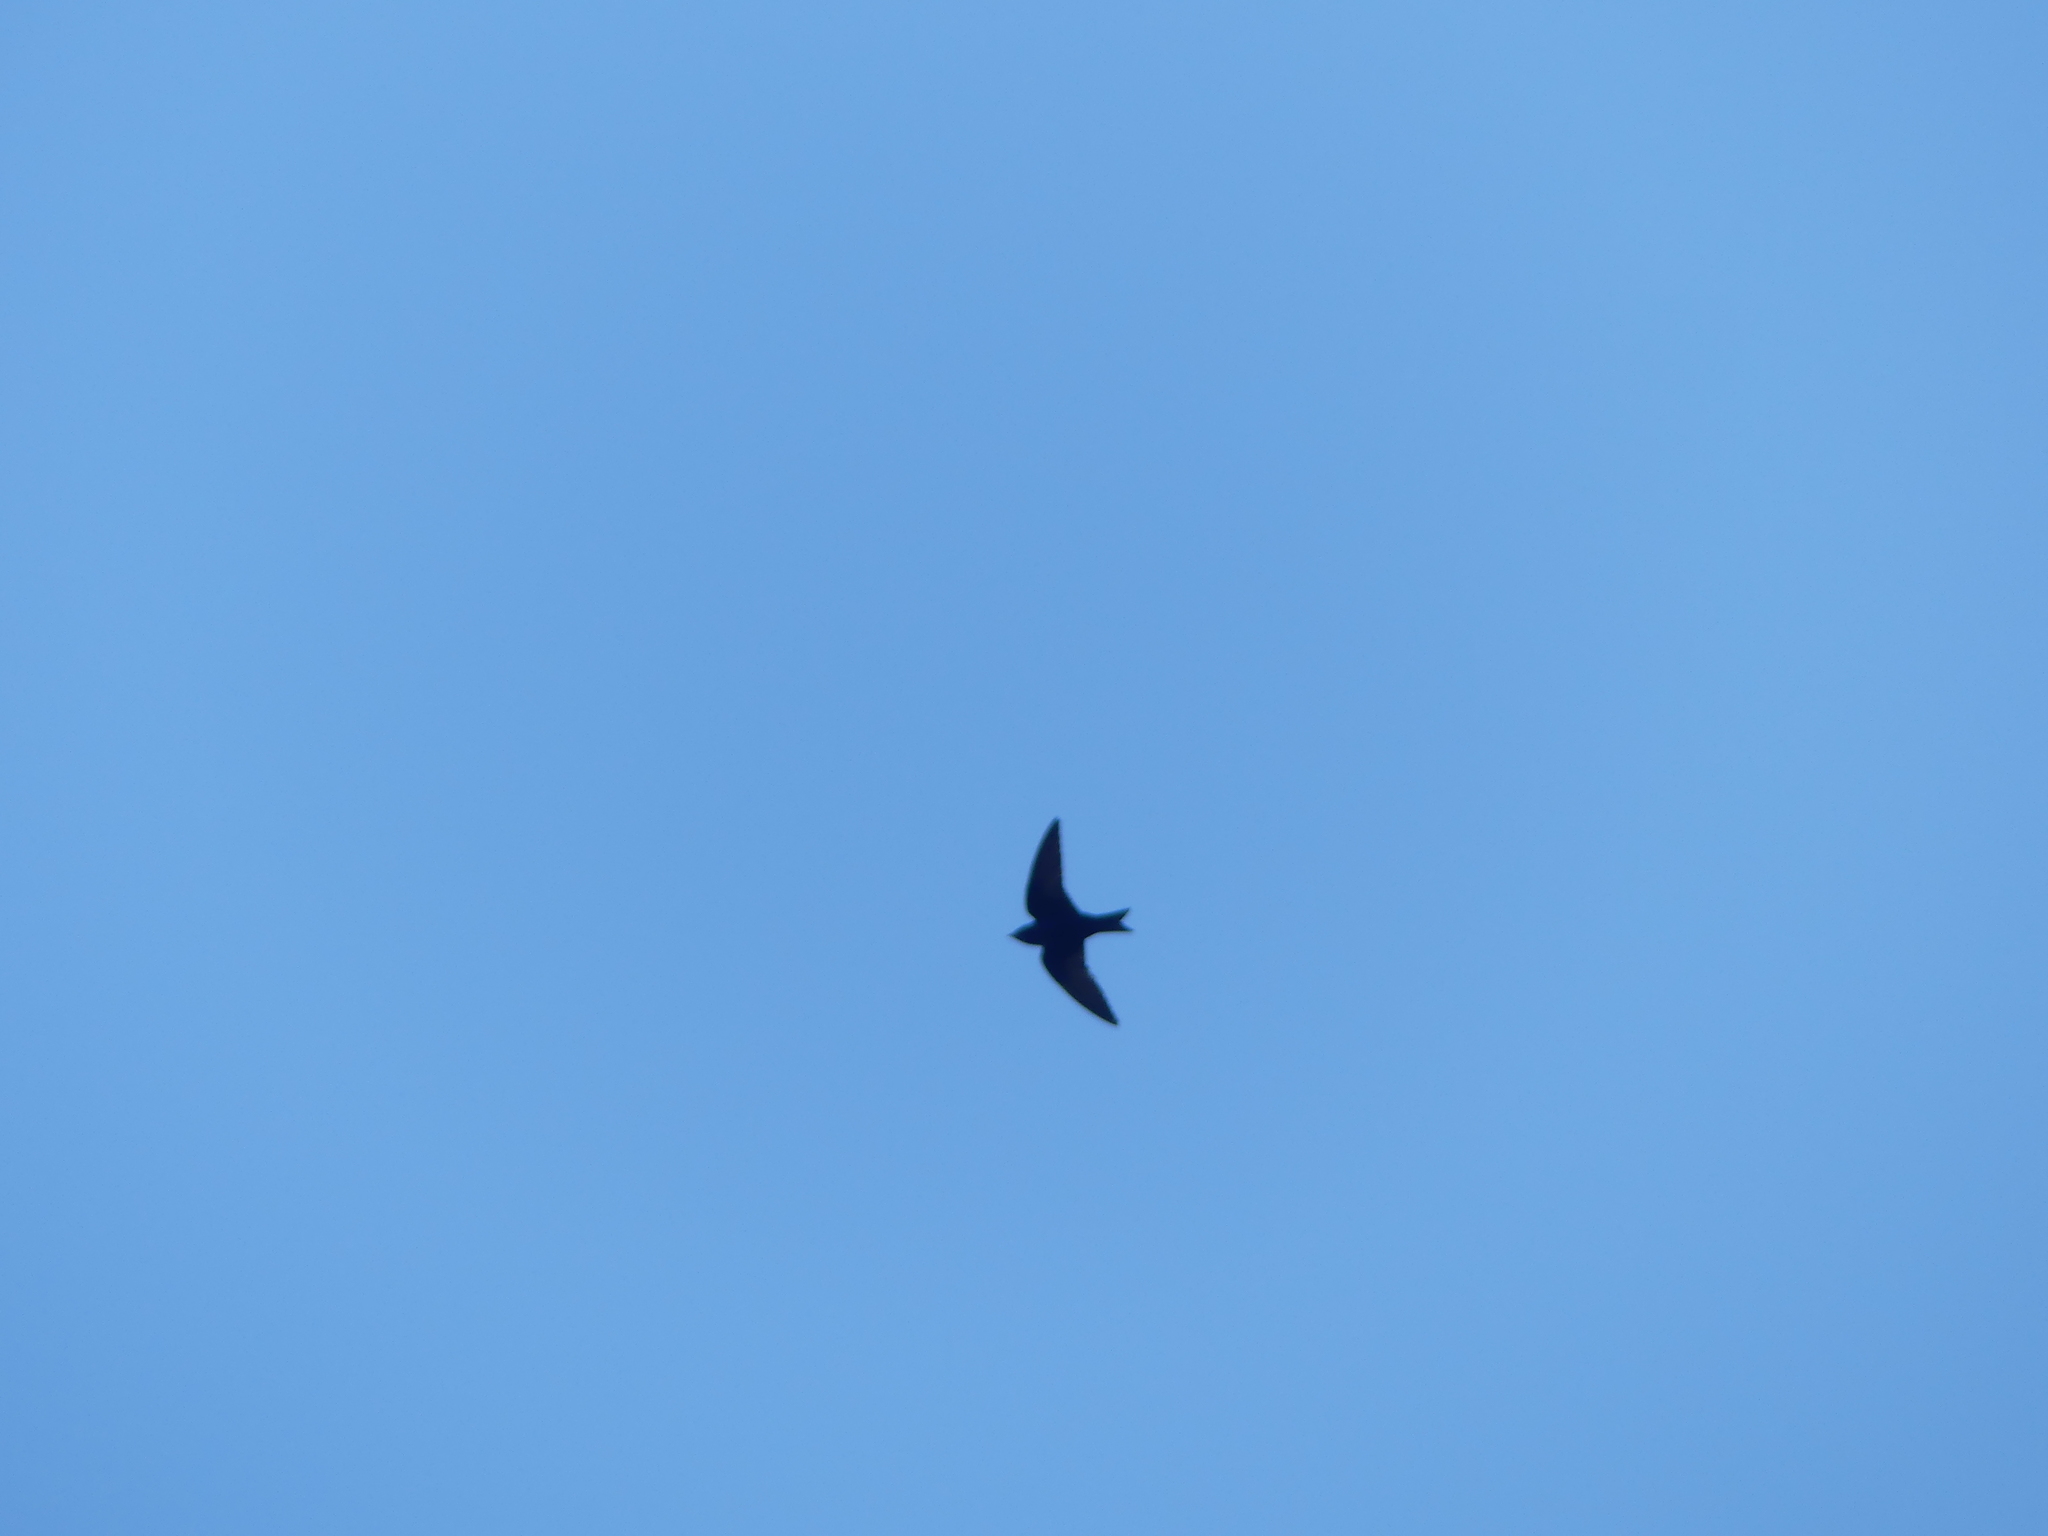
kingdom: Animalia
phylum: Chordata
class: Aves
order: Passeriformes
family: Hirundinidae
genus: Progne
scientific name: Progne subis
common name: Purple martin
